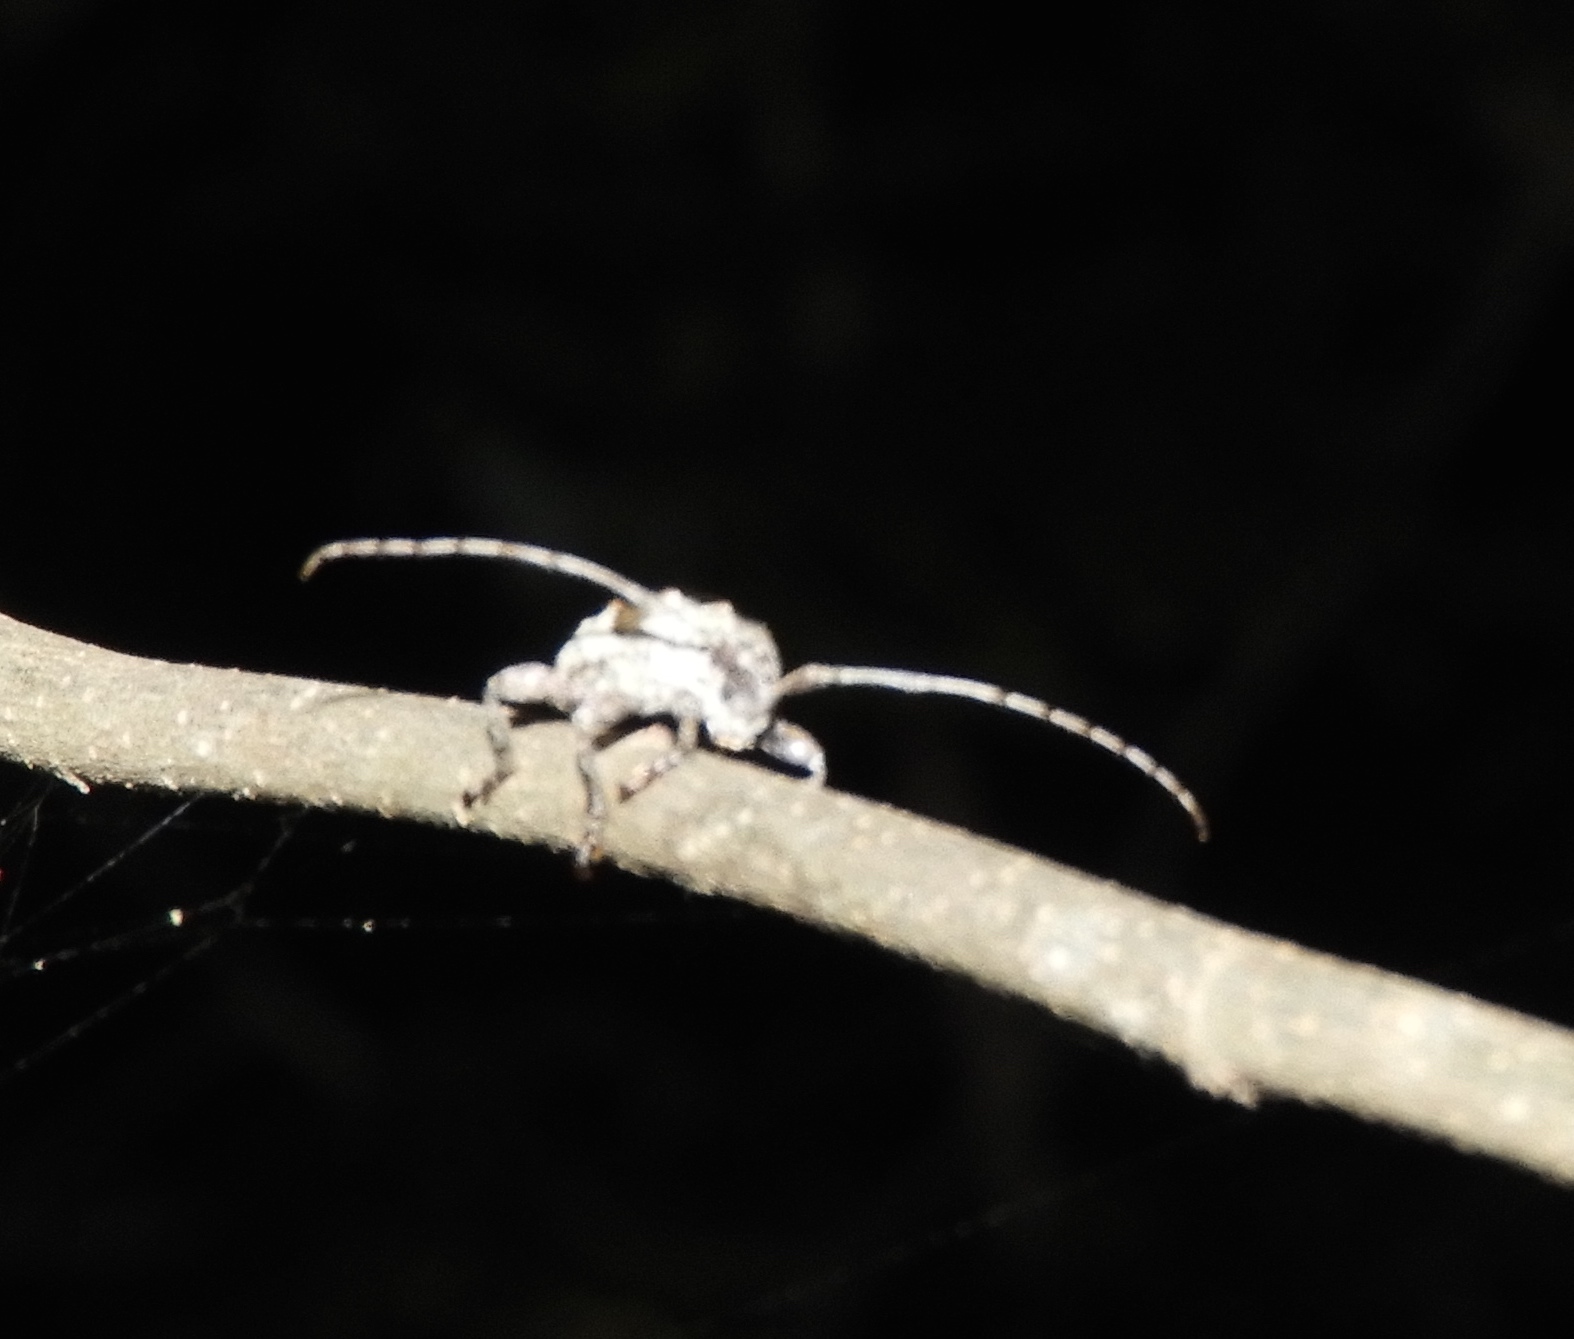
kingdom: Animalia
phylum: Arthropoda
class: Insecta
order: Coleoptera
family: Cerambycidae
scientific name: Cerambycidae
